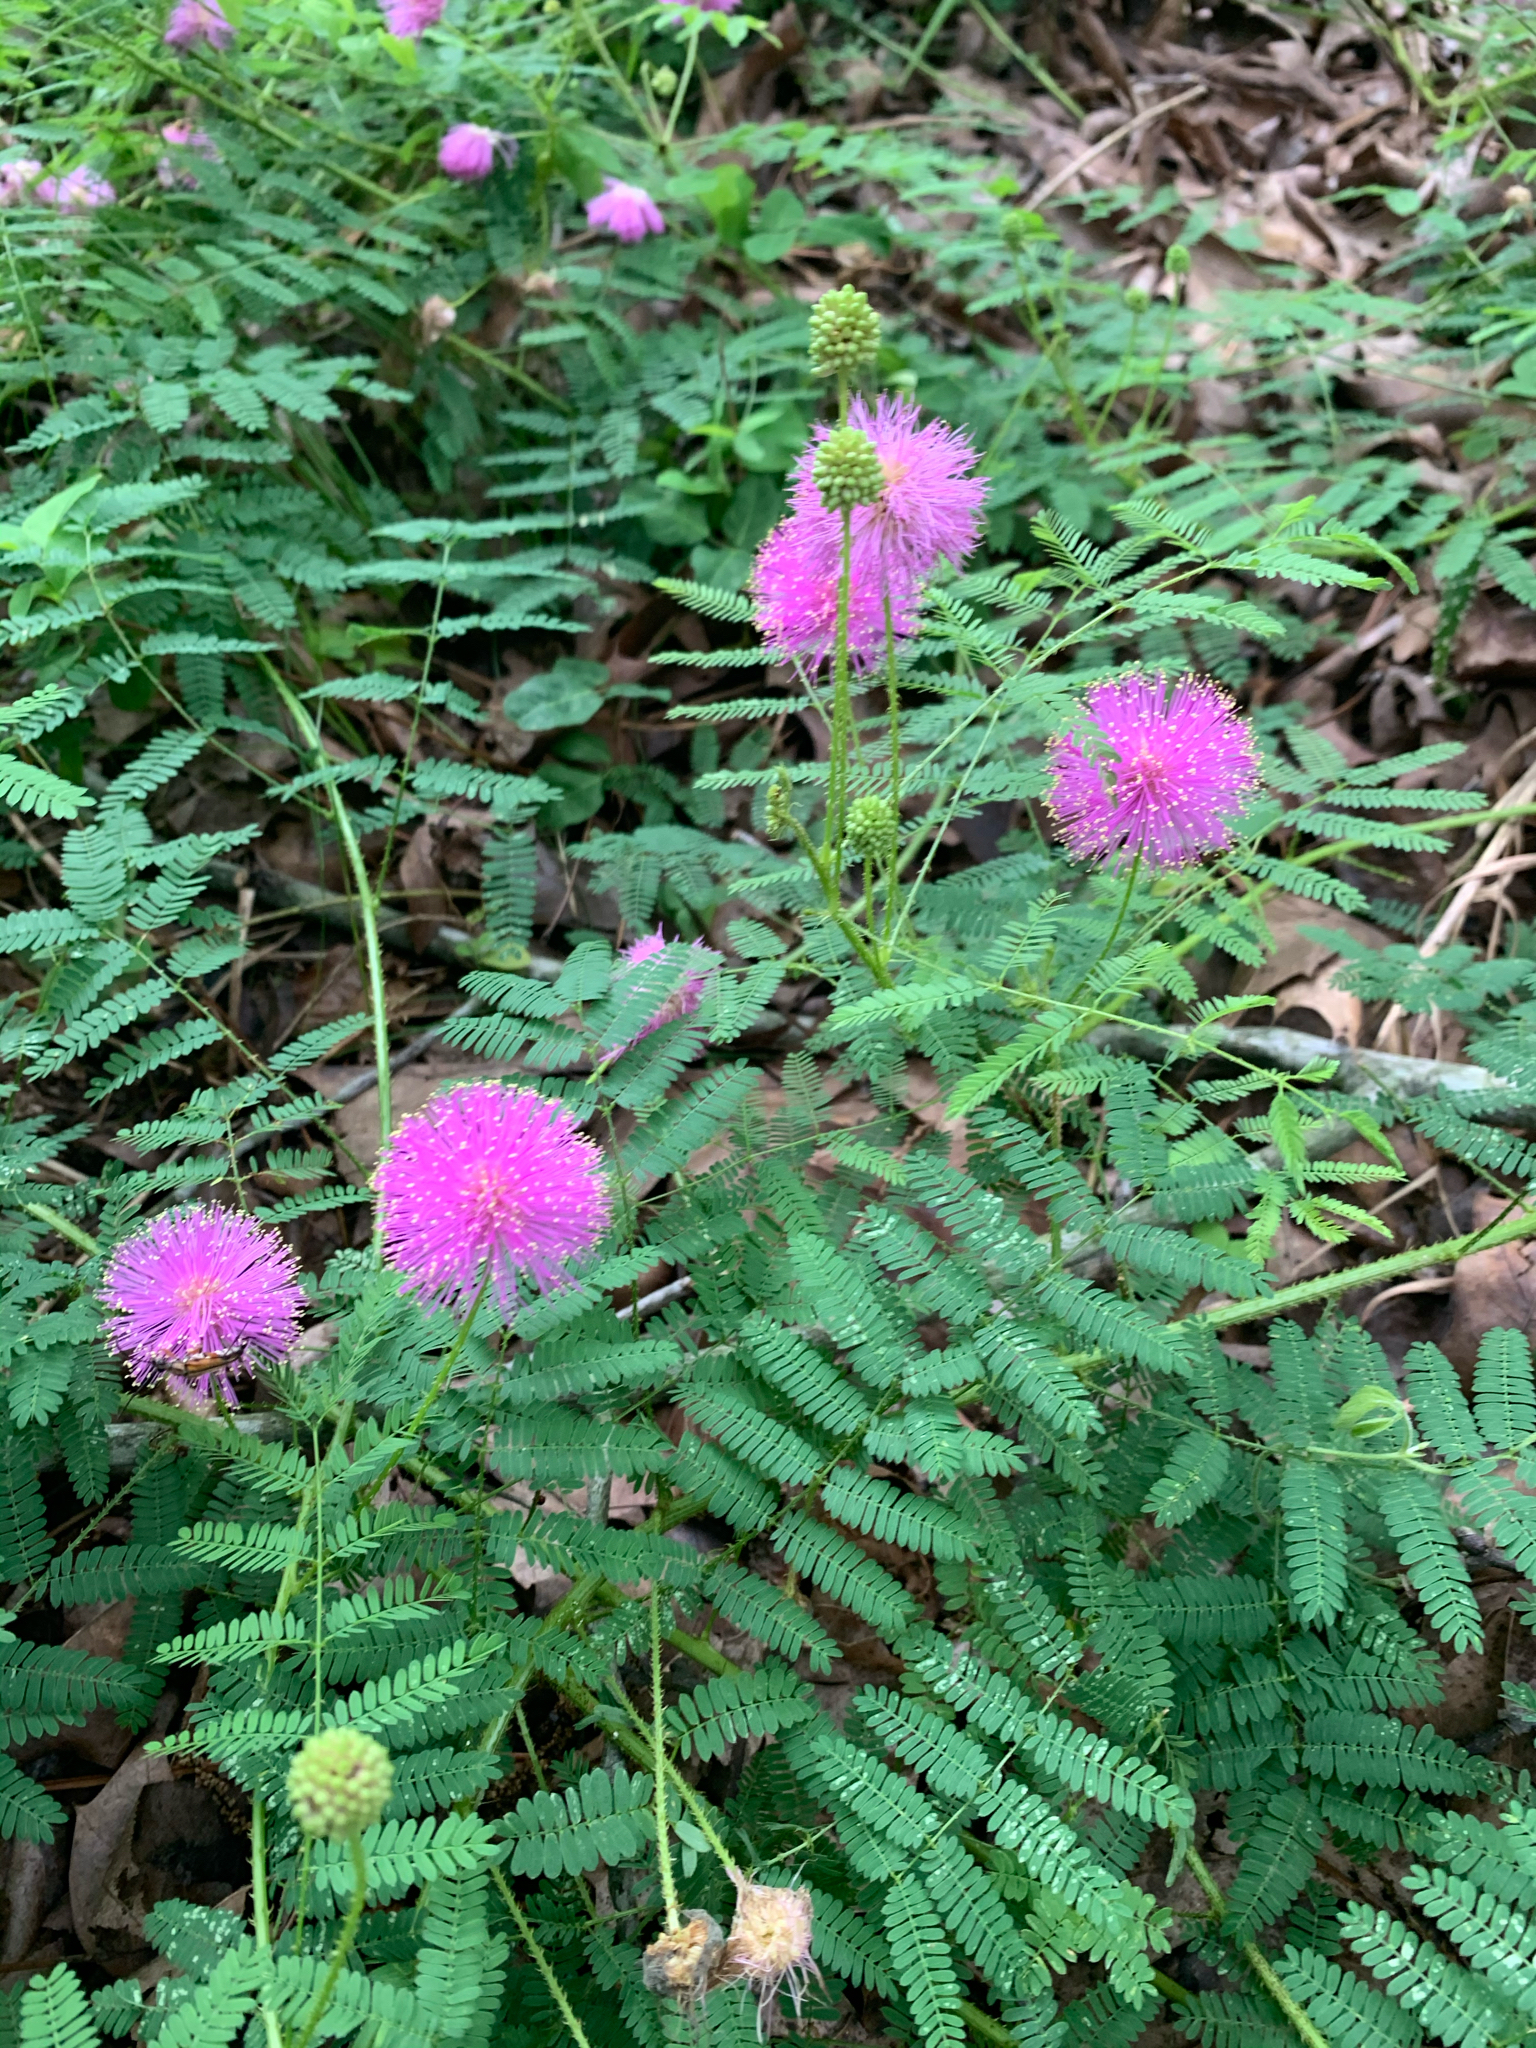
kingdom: Plantae
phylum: Tracheophyta
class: Magnoliopsida
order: Fabales
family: Fabaceae
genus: Mimosa
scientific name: Mimosa quadrivalvis
